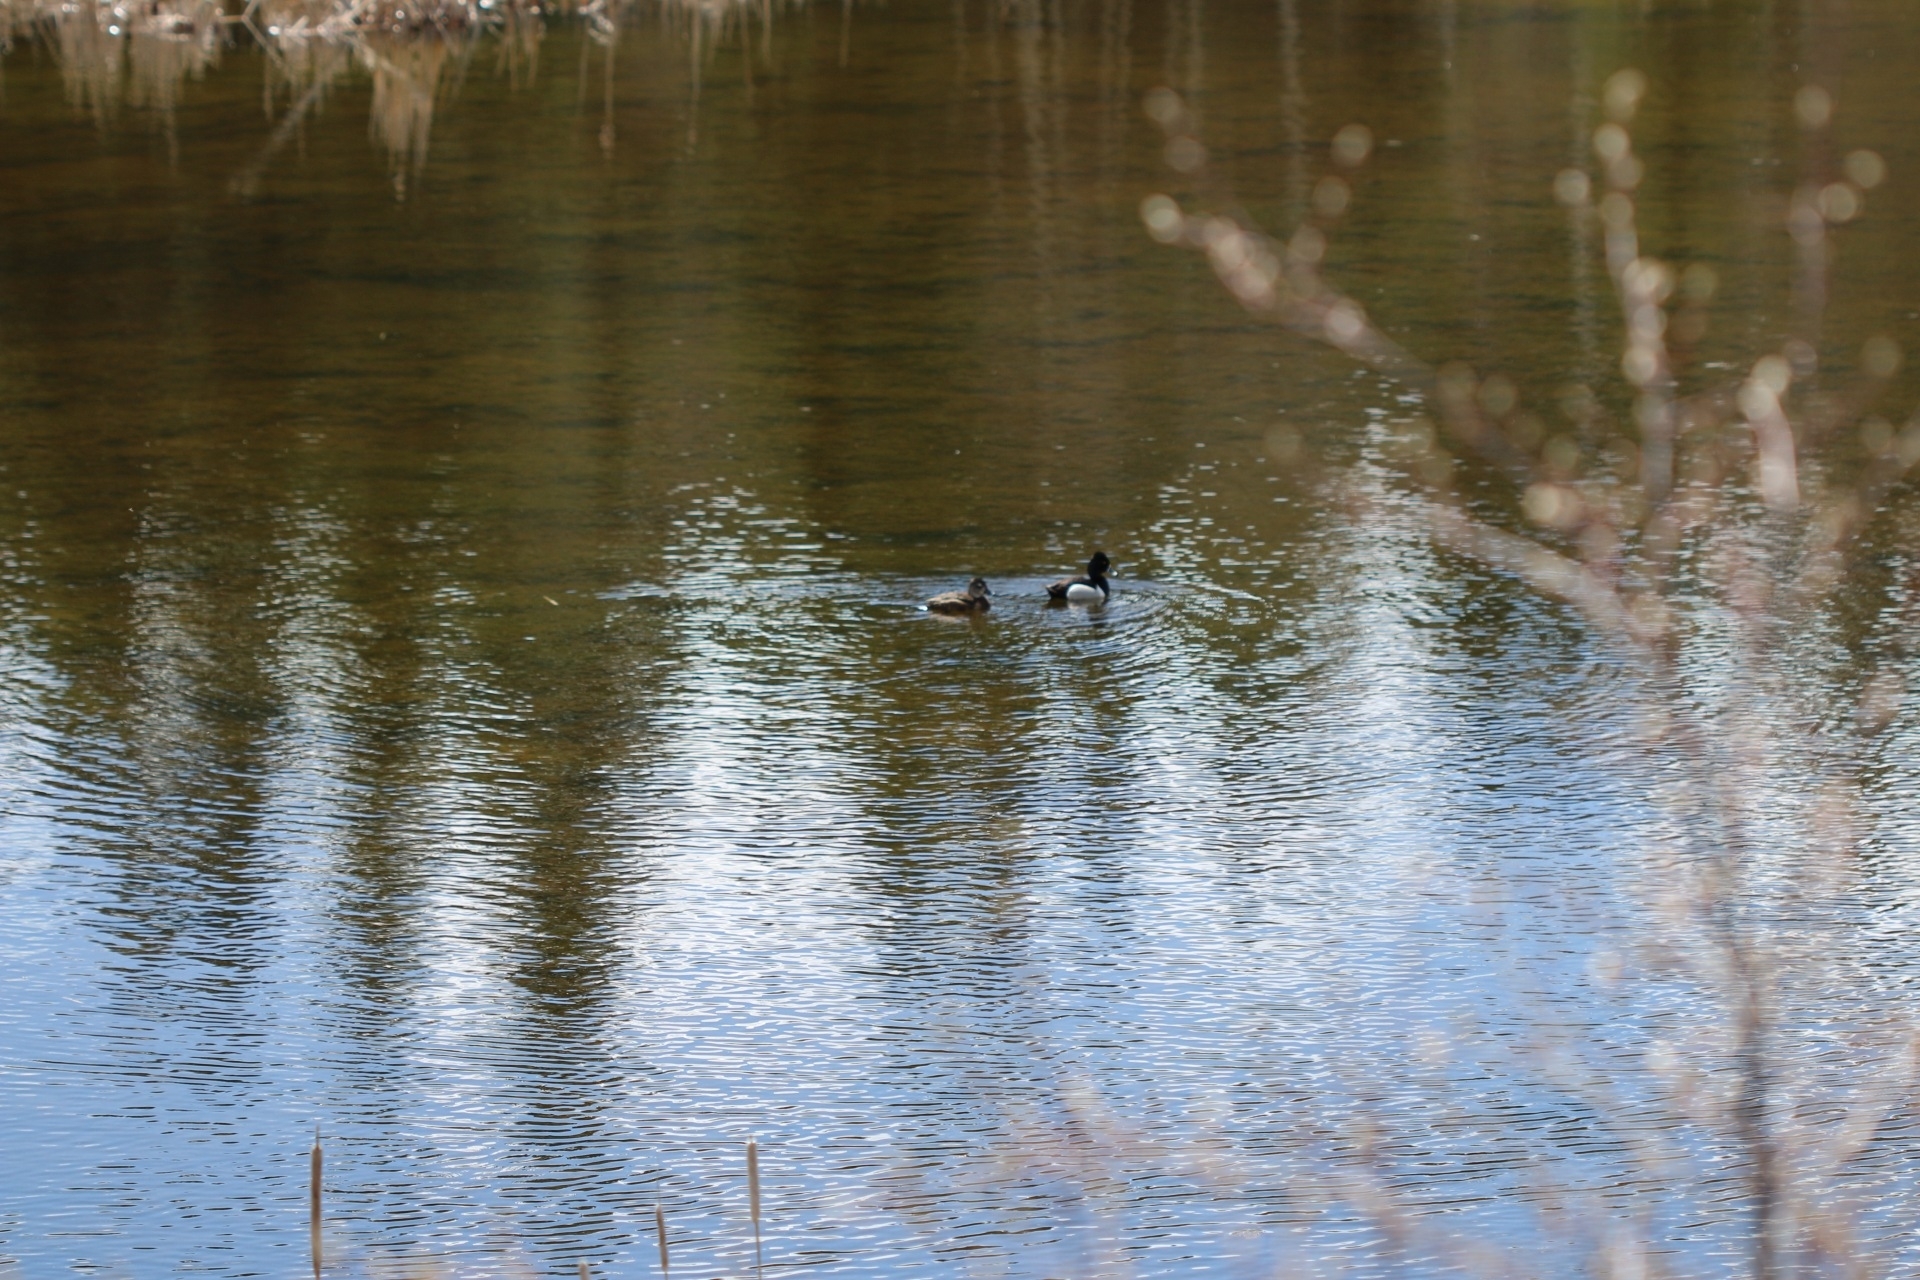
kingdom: Animalia
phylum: Chordata
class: Aves
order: Anseriformes
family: Anatidae
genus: Aythya
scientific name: Aythya collaris
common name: Ring-necked duck
